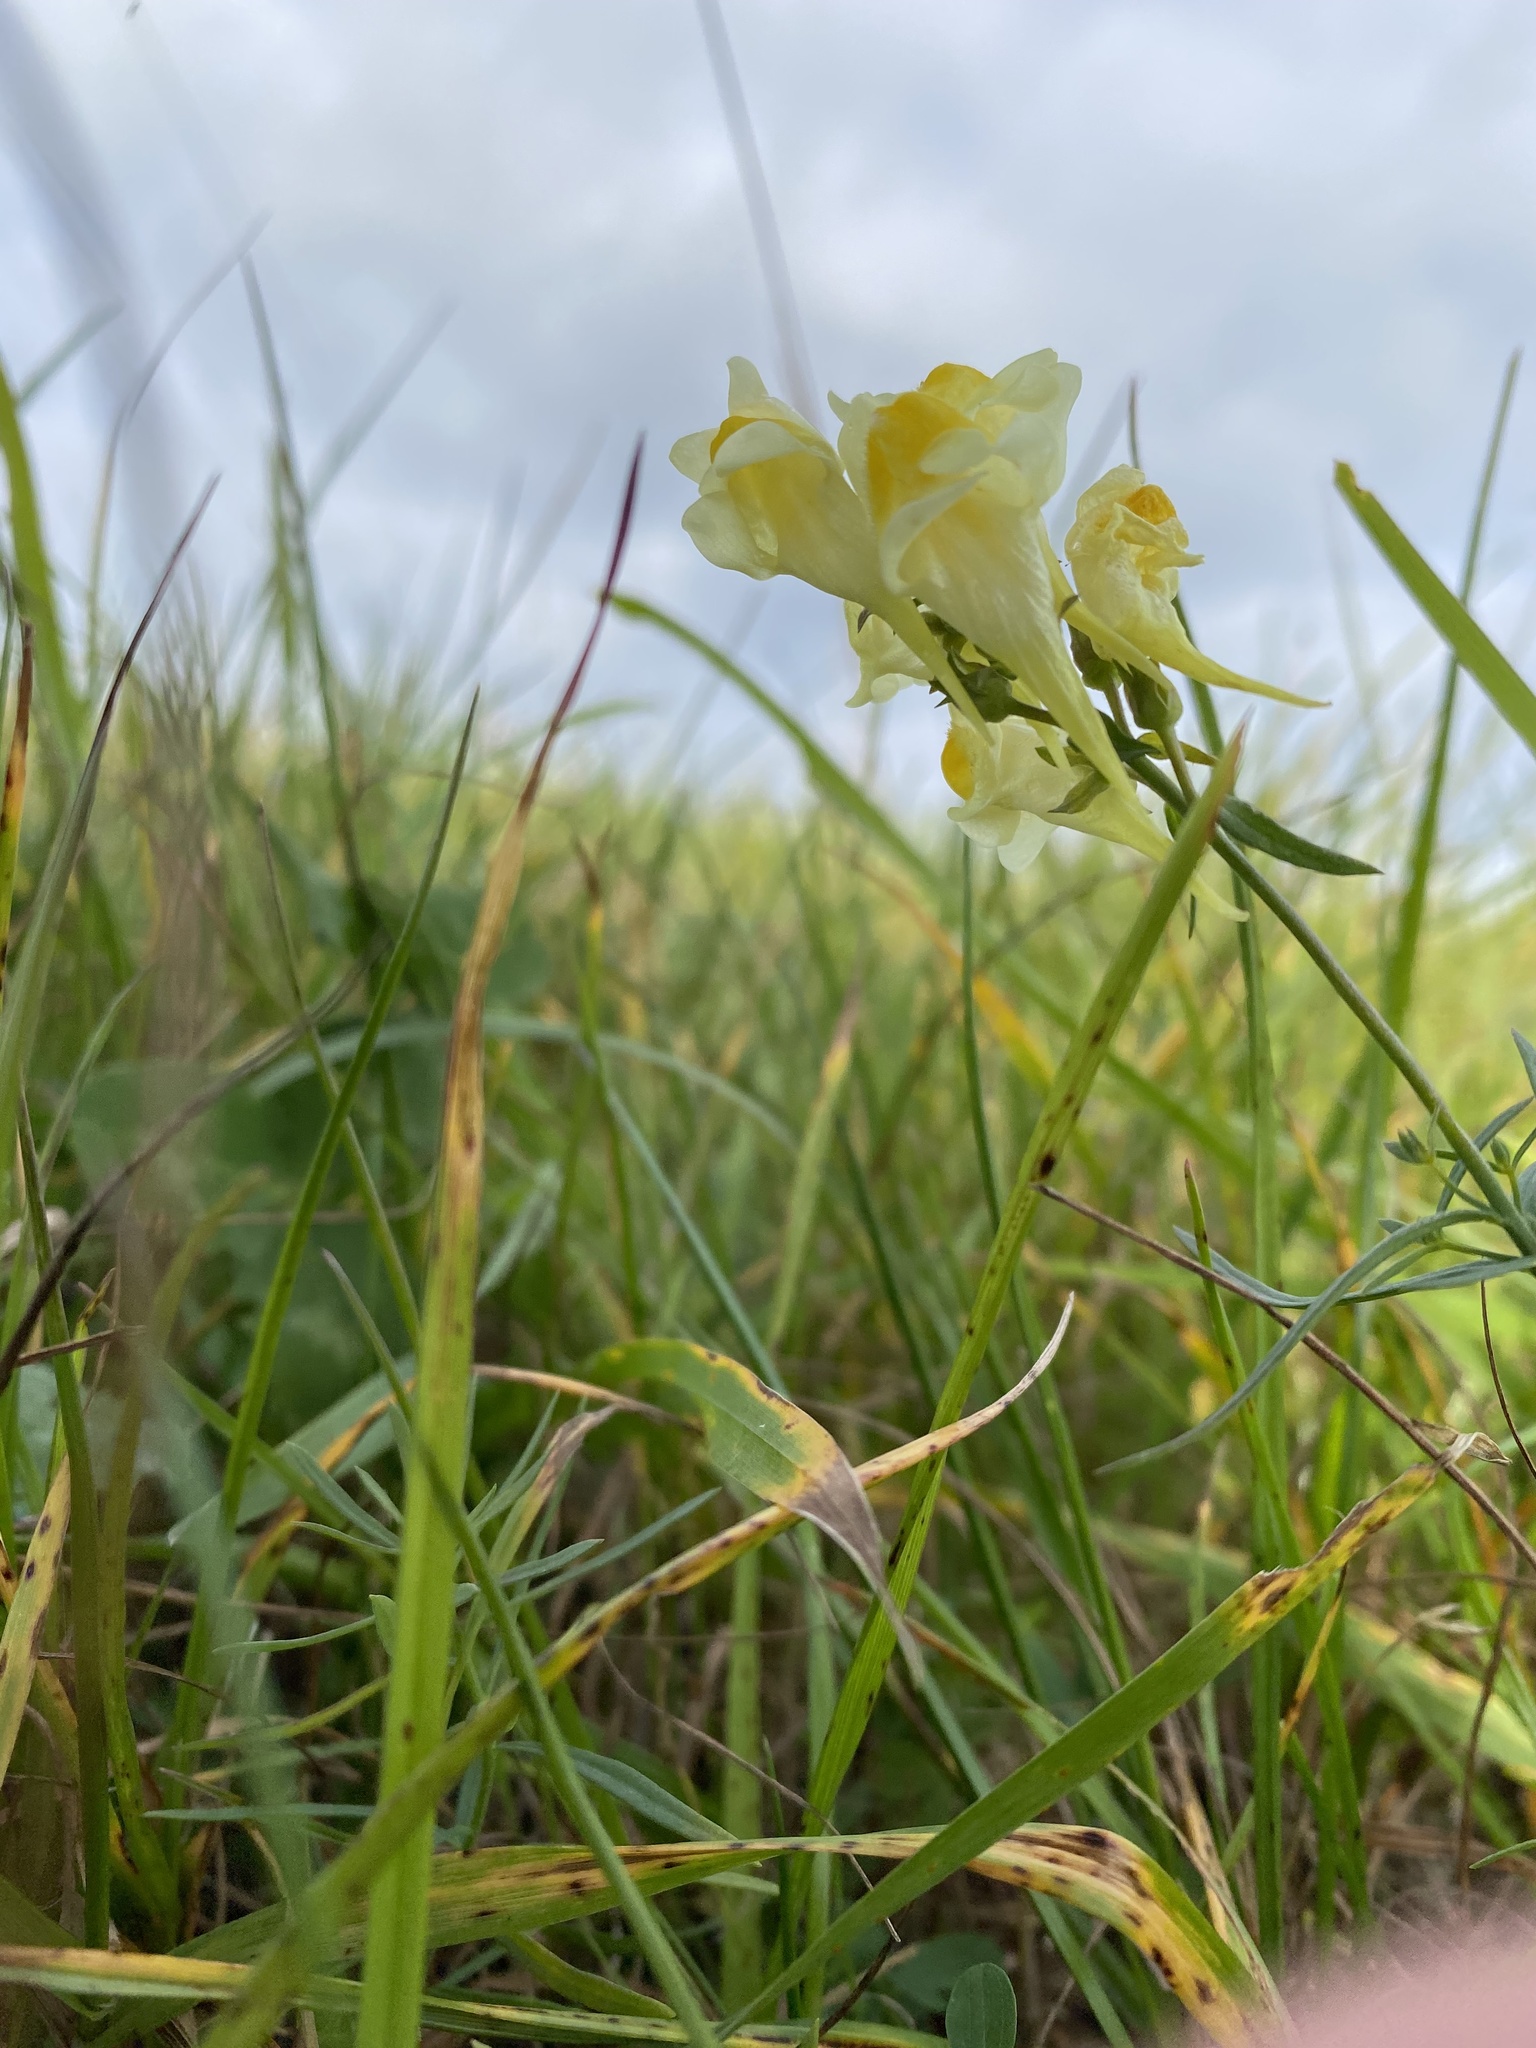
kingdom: Plantae
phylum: Tracheophyta
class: Magnoliopsida
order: Lamiales
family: Plantaginaceae
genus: Linaria
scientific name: Linaria vulgaris
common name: Butter and eggs
